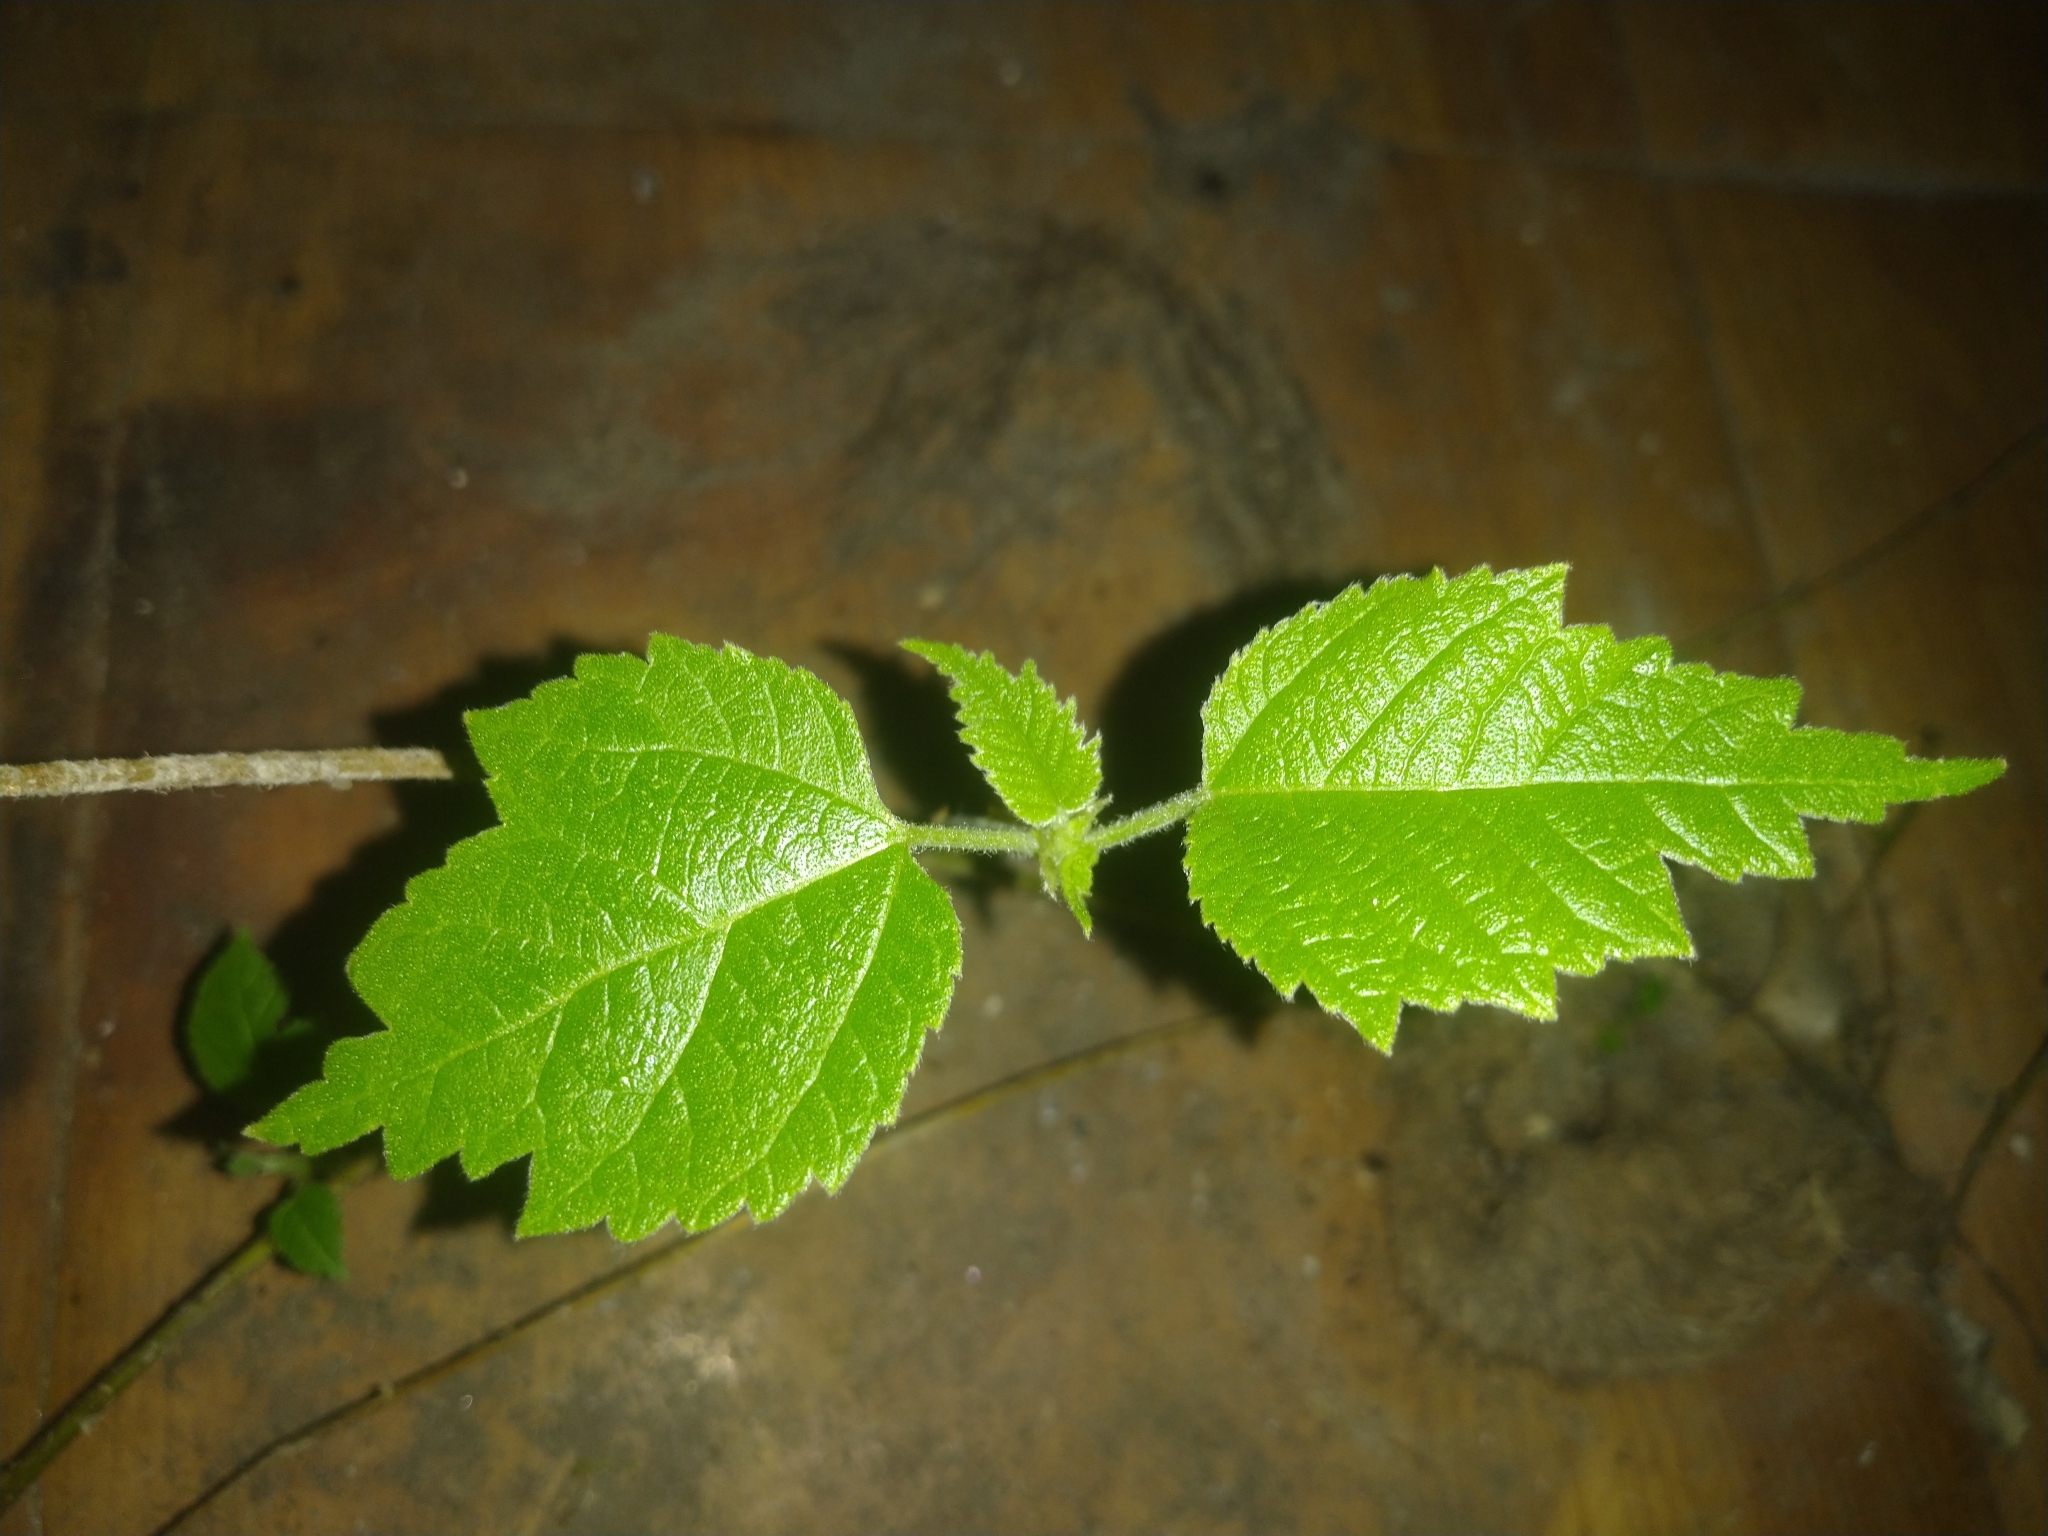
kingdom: Plantae
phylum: Tracheophyta
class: Magnoliopsida
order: Rosales
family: Moraceae
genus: Broussonetia
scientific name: Broussonetia papyrifera
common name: Paper mulberry
